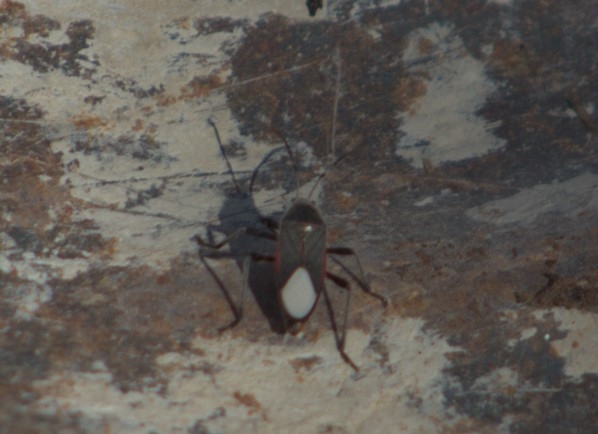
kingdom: Animalia
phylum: Arthropoda
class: Insecta
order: Hemiptera
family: Largidae
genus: Largus
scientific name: Largus subligatus
